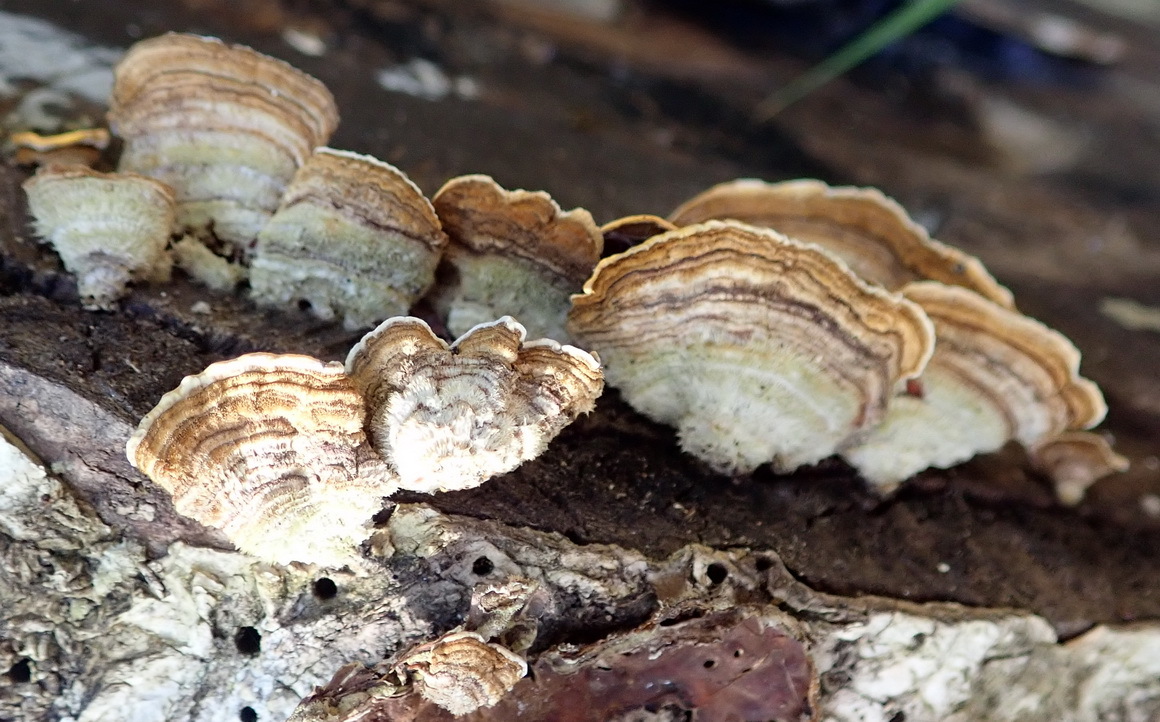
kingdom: Fungi
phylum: Basidiomycota
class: Agaricomycetes
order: Russulales
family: Stereaceae
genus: Stereum
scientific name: Stereum hirsutum
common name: Hairy curtain crust
